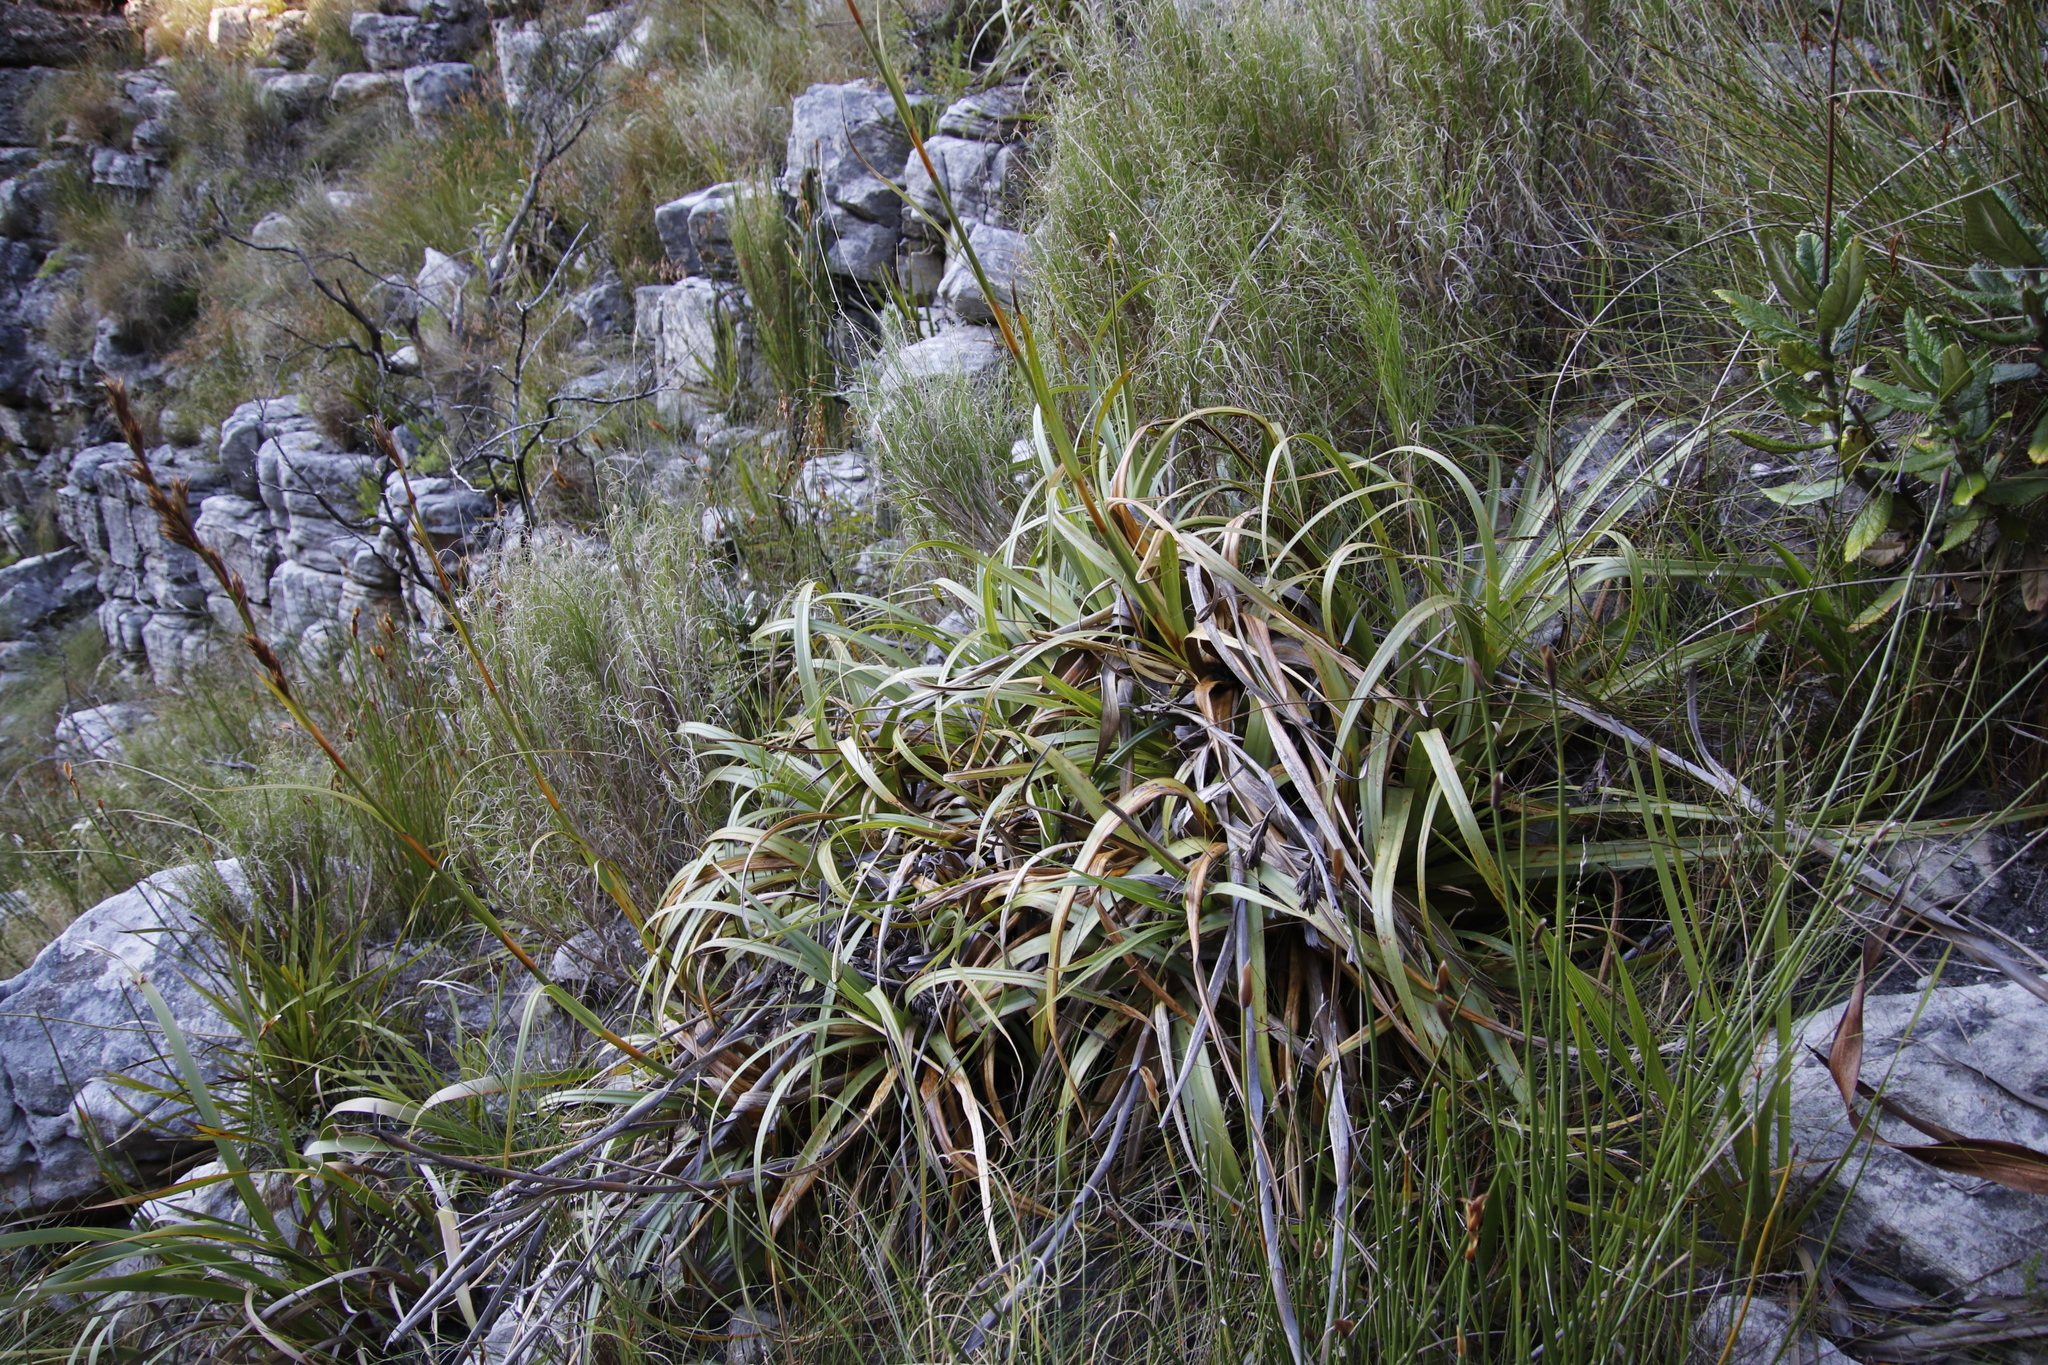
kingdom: Plantae
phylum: Tracheophyta
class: Liliopsida
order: Poales
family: Cyperaceae
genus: Tetraria
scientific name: Tetraria thermalis
